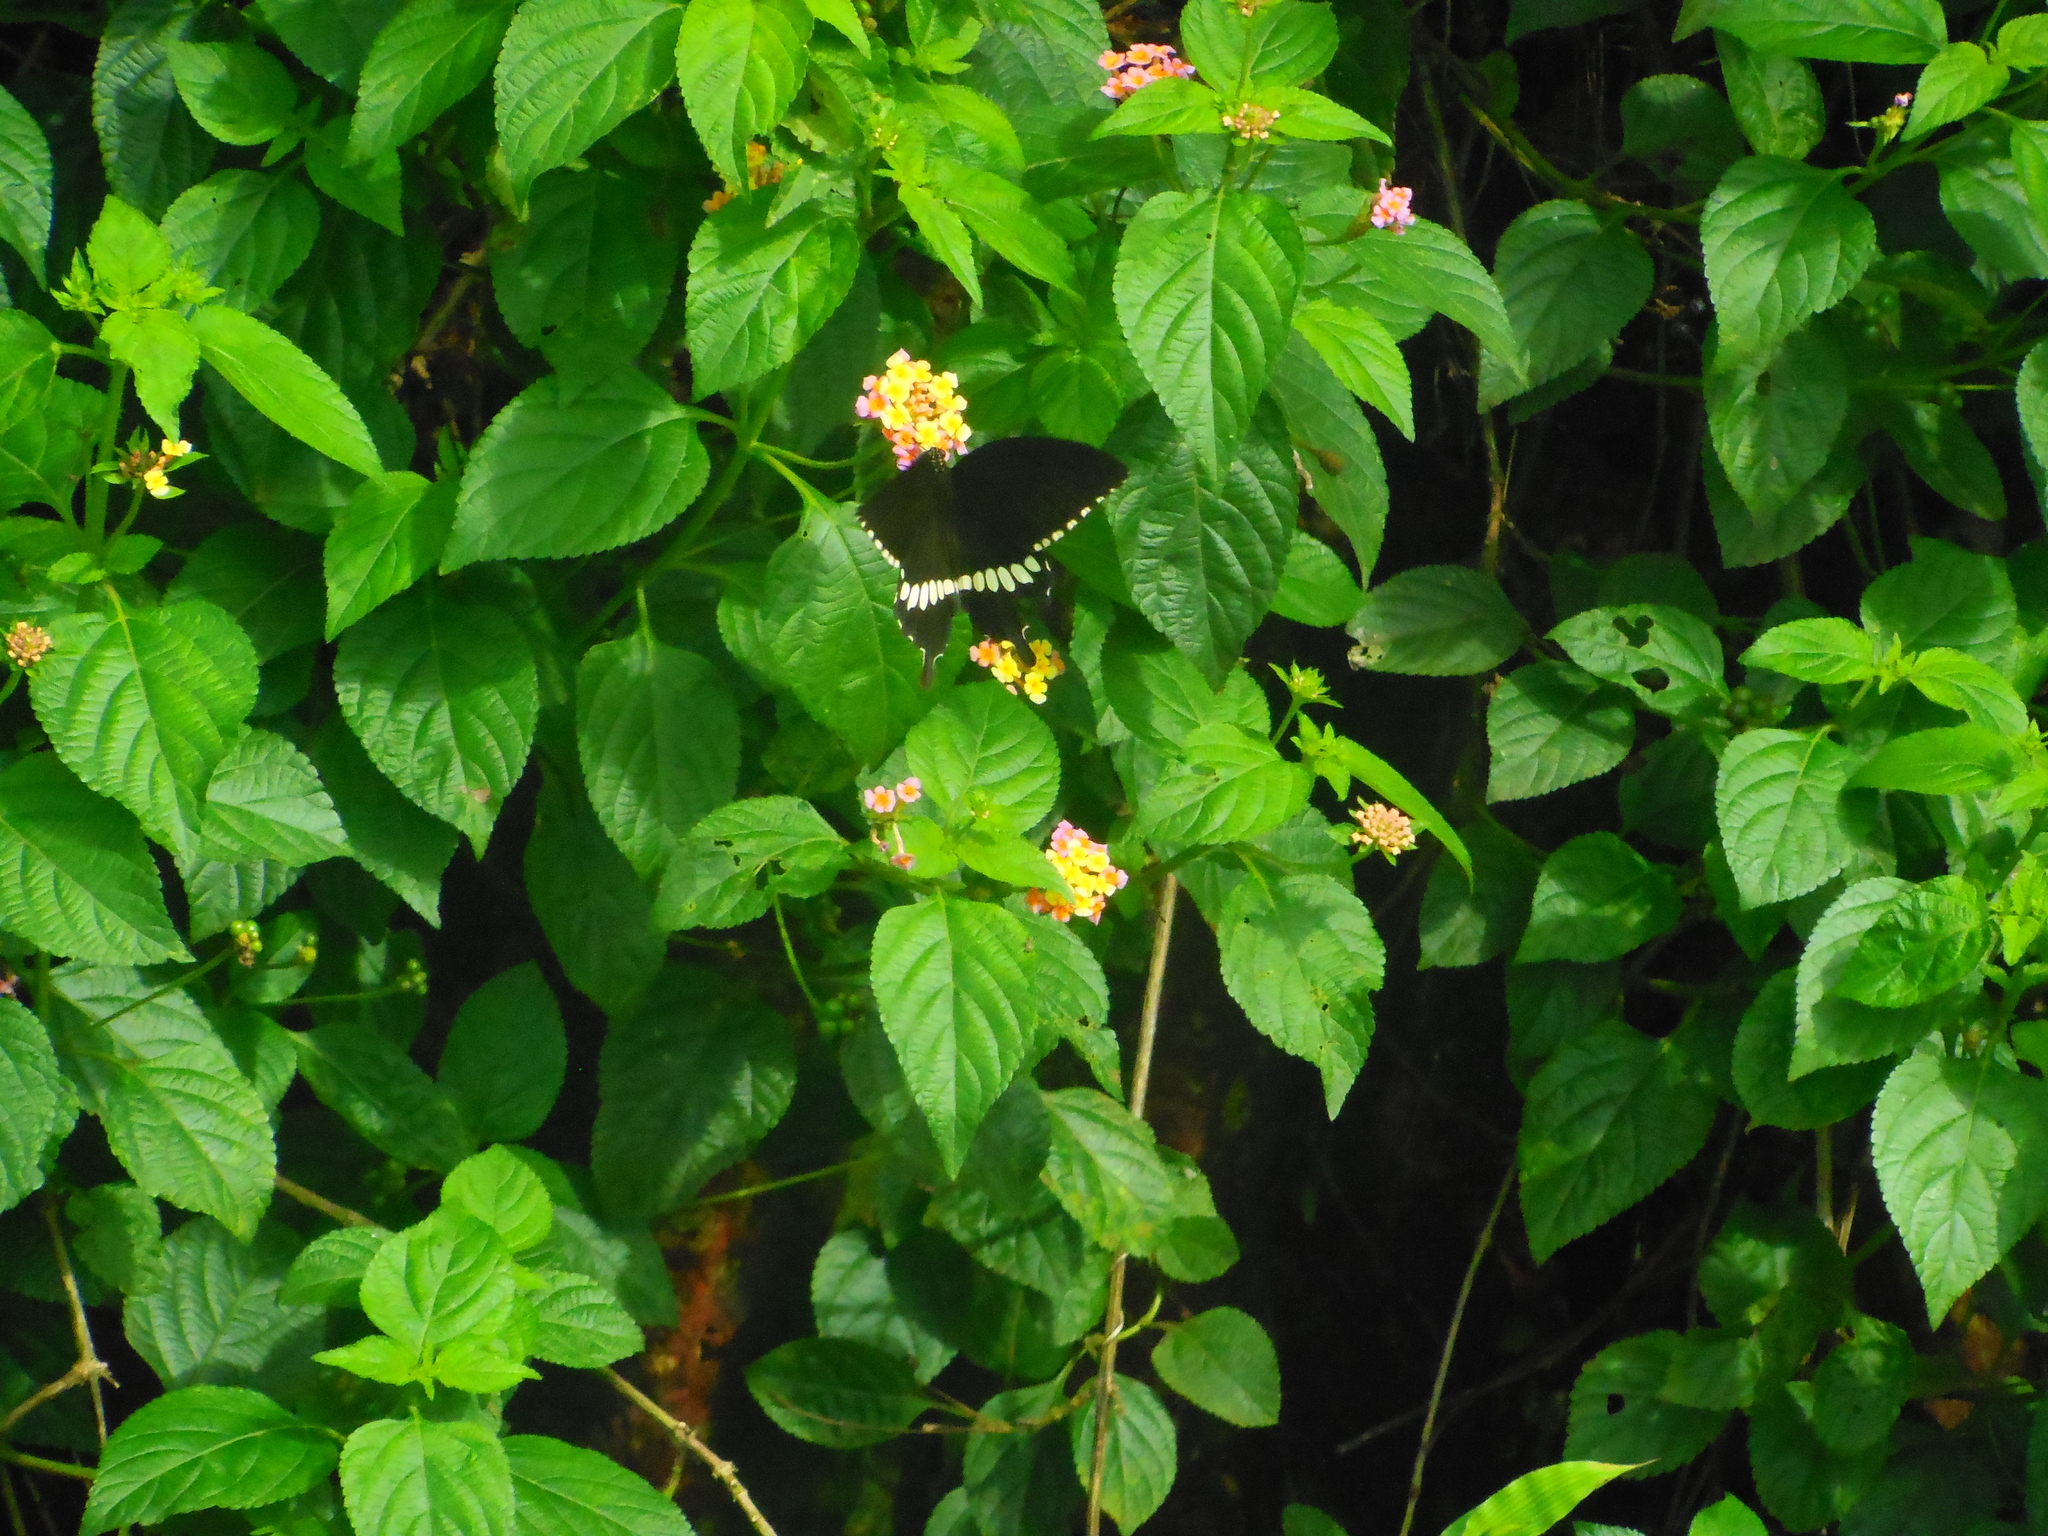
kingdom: Animalia
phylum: Arthropoda
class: Insecta
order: Lepidoptera
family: Papilionidae
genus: Papilio
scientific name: Papilio polytes
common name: Common mormon
